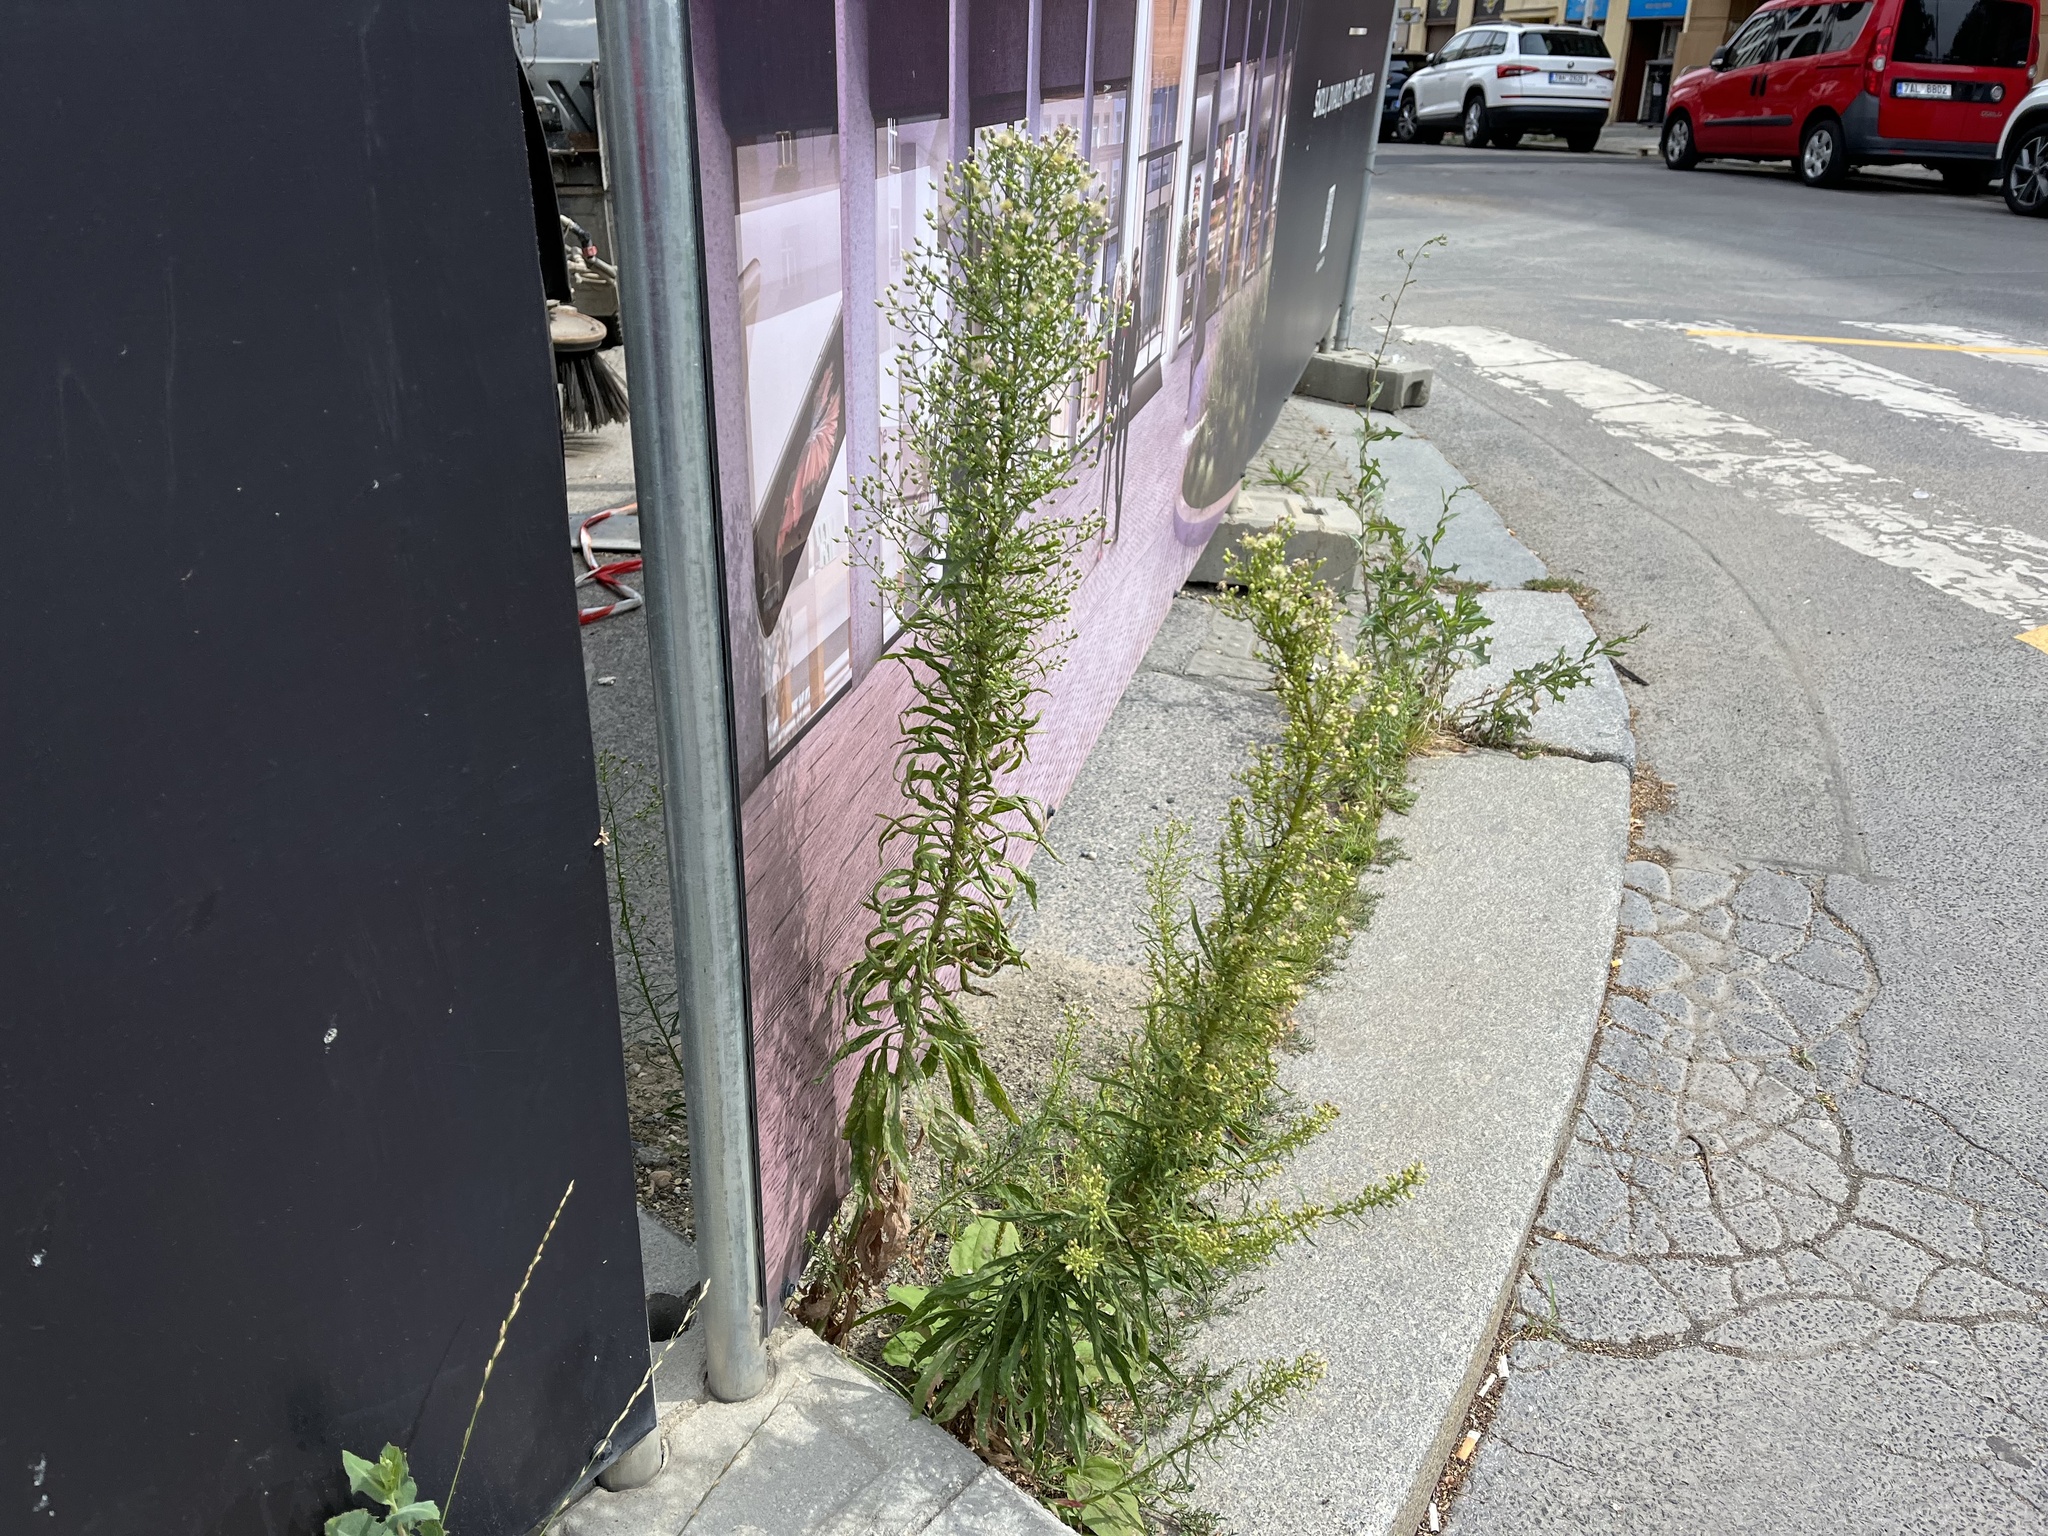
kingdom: Plantae
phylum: Tracheophyta
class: Magnoliopsida
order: Asterales
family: Asteraceae
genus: Erigeron
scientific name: Erigeron canadensis
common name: Canadian fleabane
